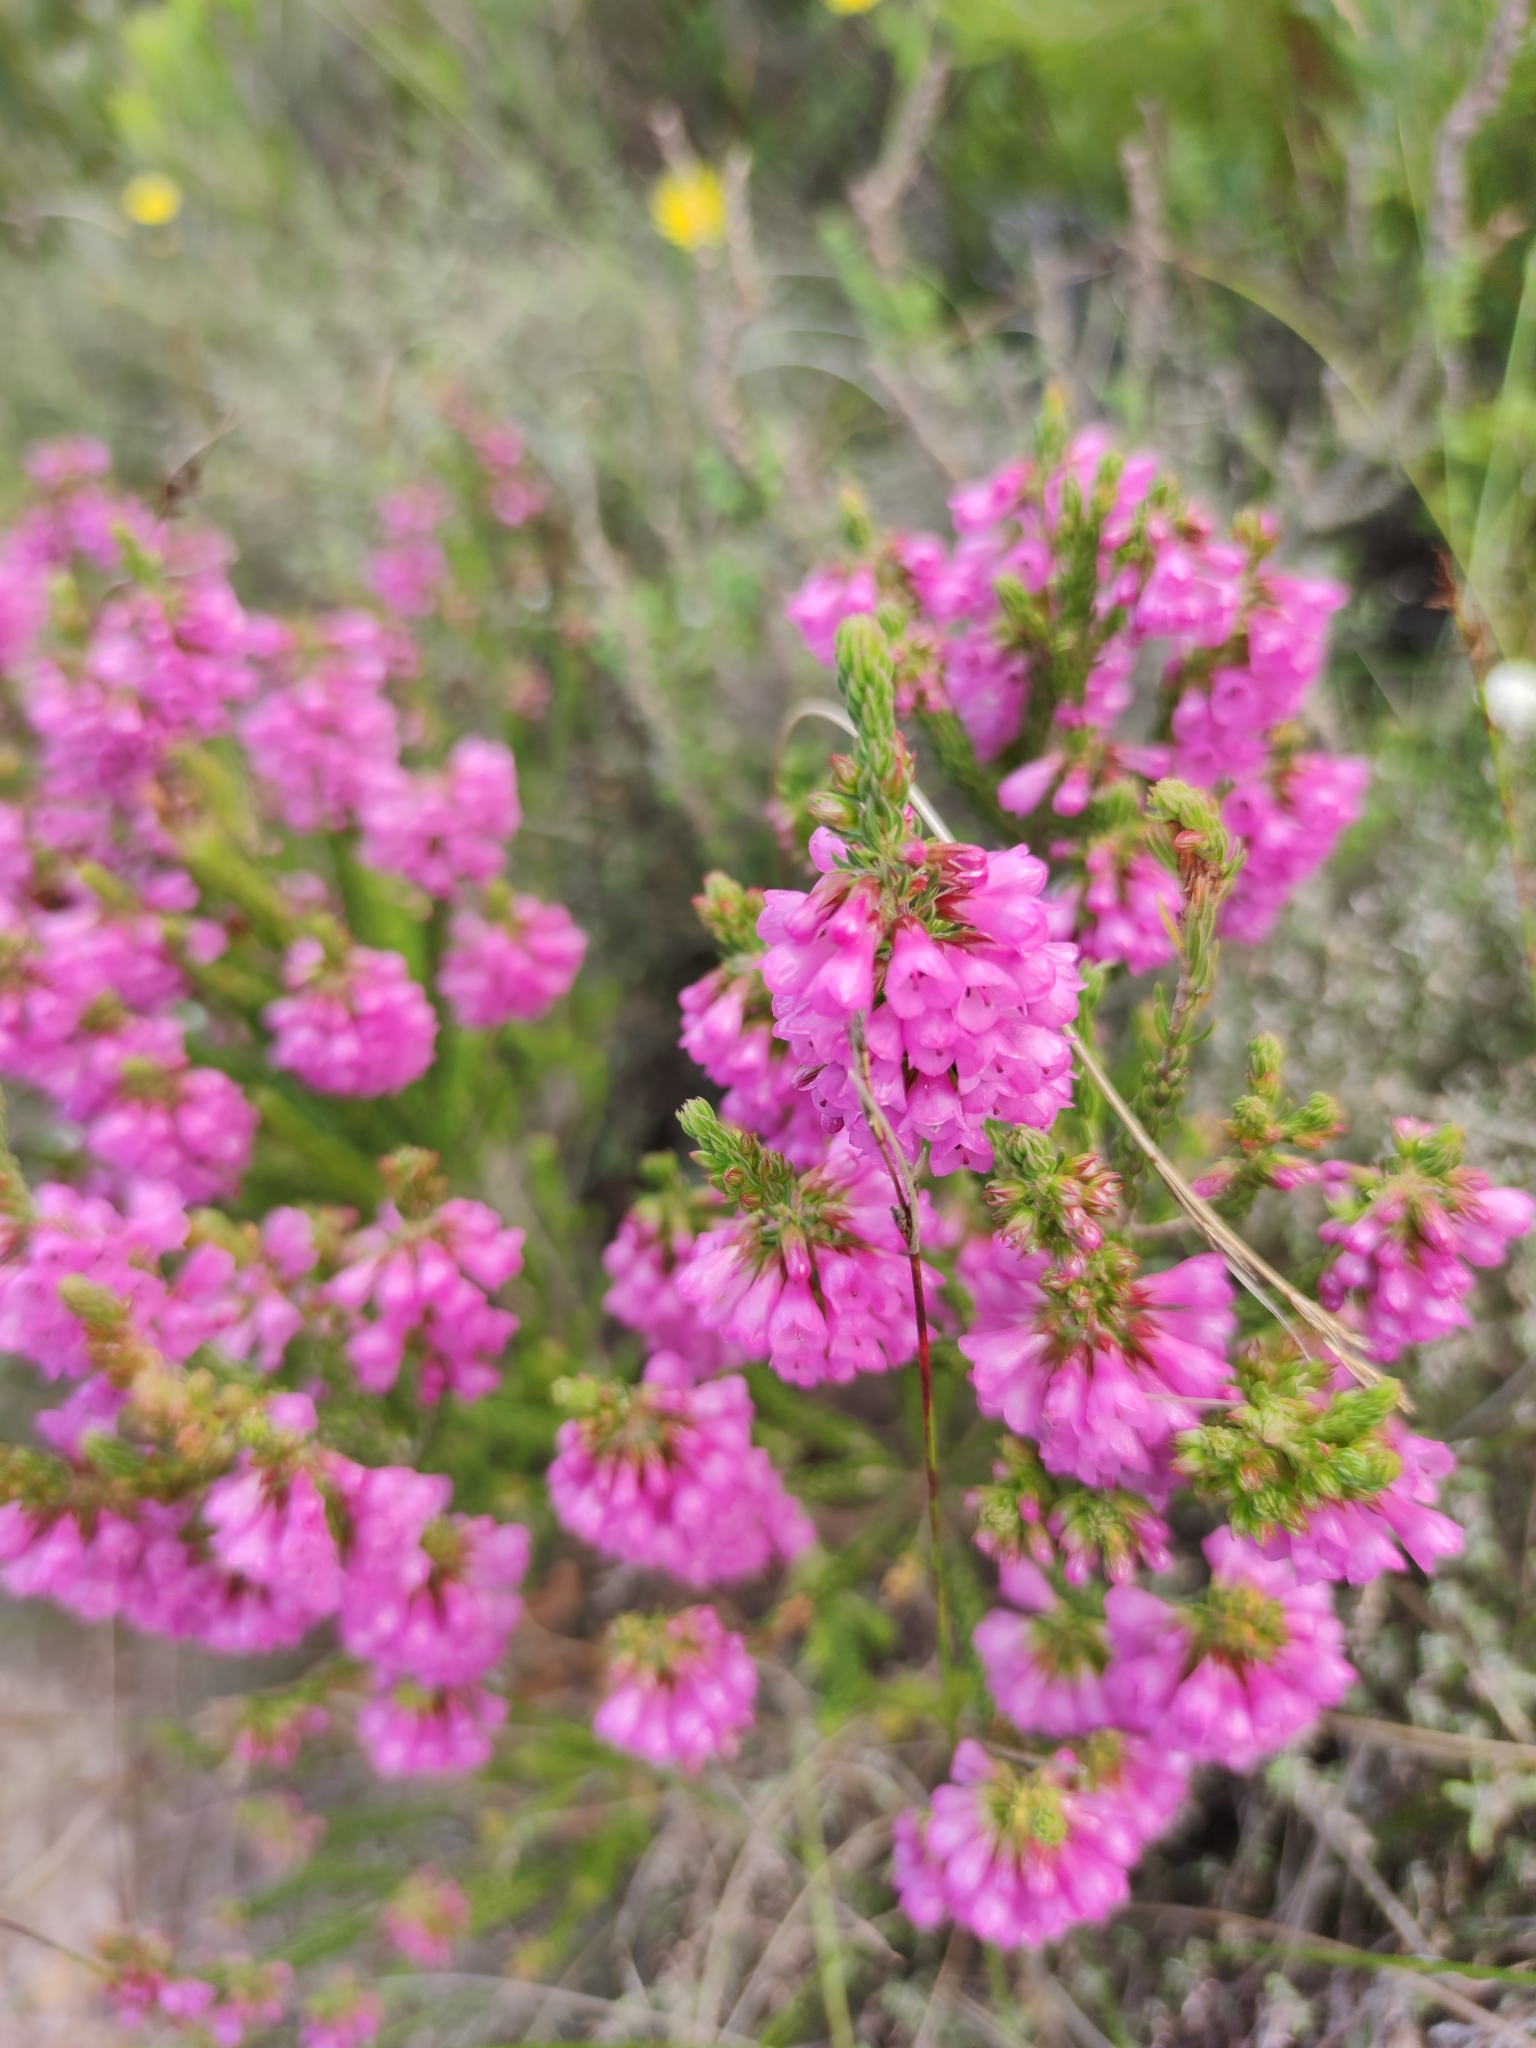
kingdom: Plantae
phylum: Tracheophyta
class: Magnoliopsida
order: Ericales
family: Ericaceae
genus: Erica
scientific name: Erica abietina
